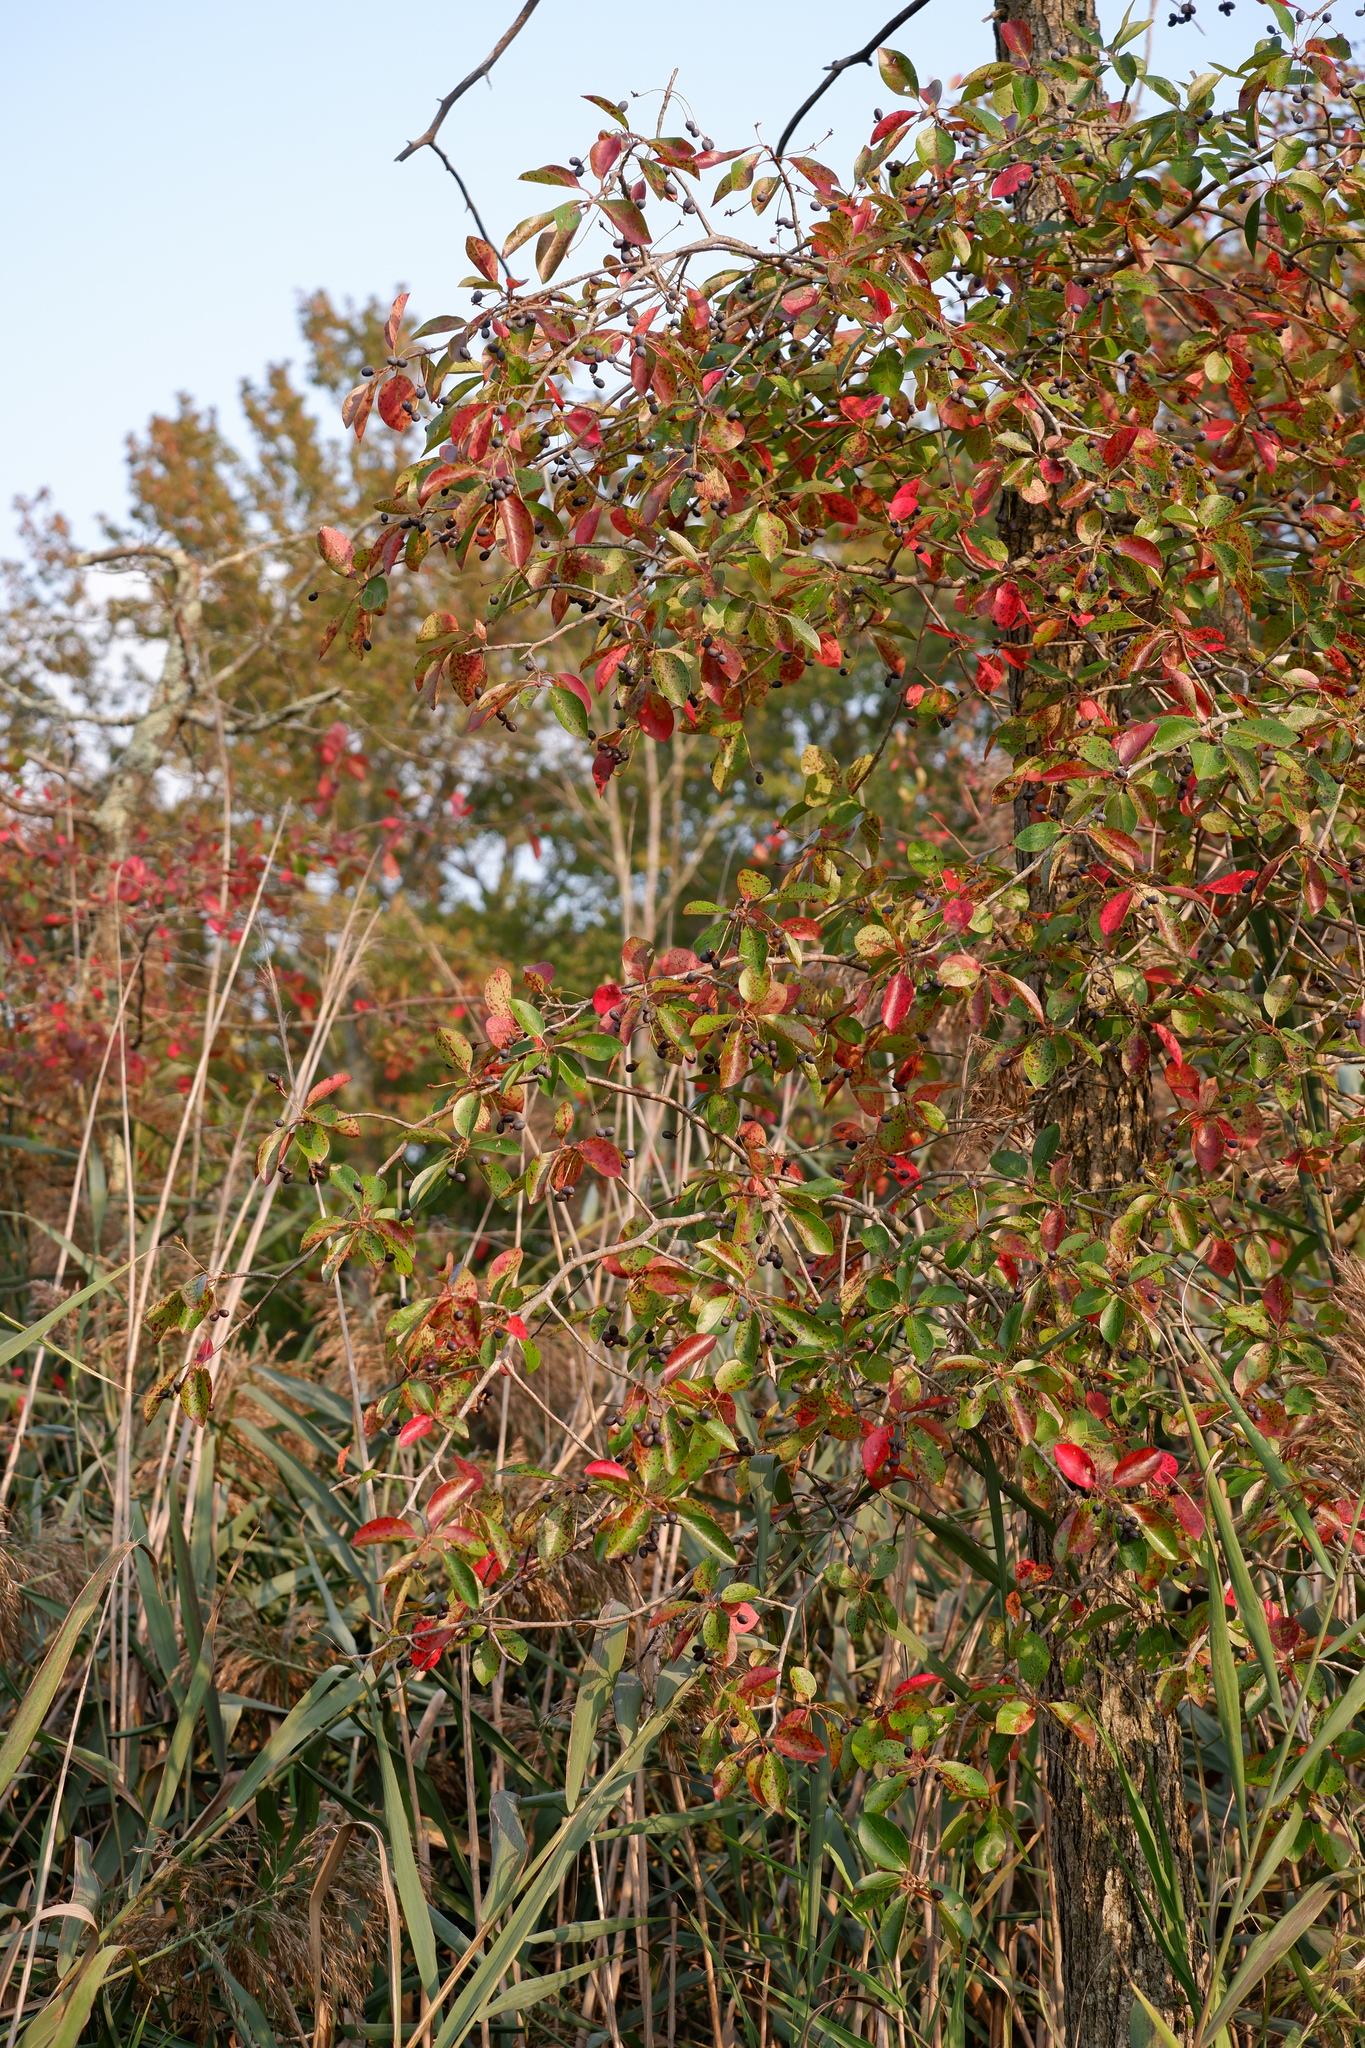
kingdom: Plantae
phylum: Tracheophyta
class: Magnoliopsida
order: Cornales
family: Nyssaceae
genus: Nyssa
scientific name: Nyssa sylvatica
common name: Black tupelo
